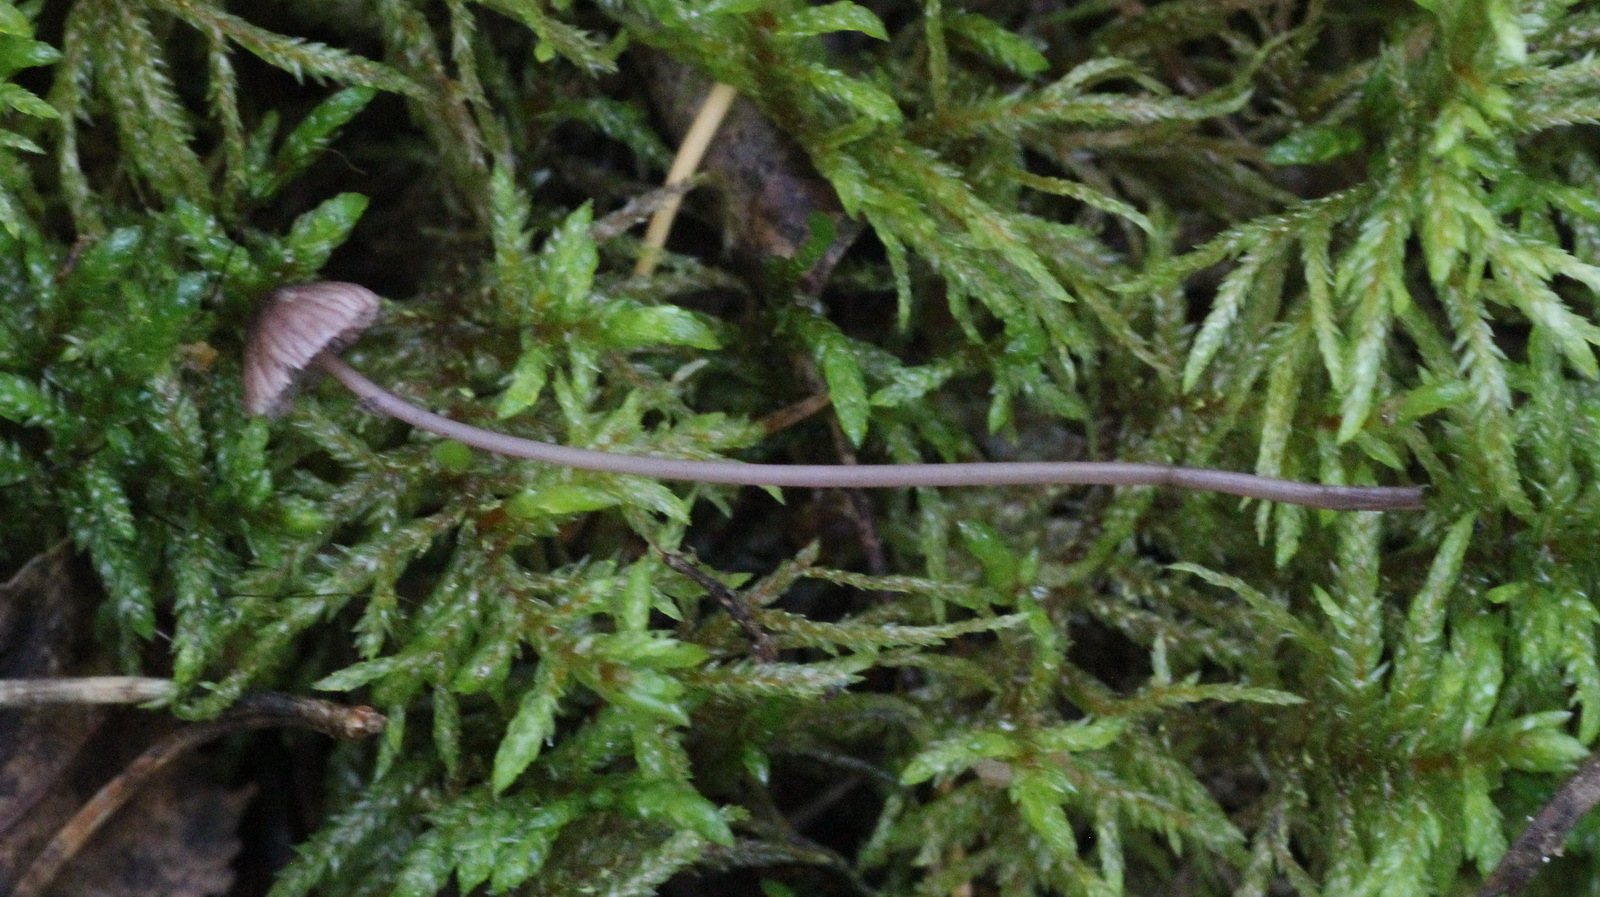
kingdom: Fungi
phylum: Basidiomycota
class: Agaricomycetes
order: Agaricales
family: Mycenaceae
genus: Mycena
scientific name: Mycena sanguinolenta
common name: Bleeding bonnet
